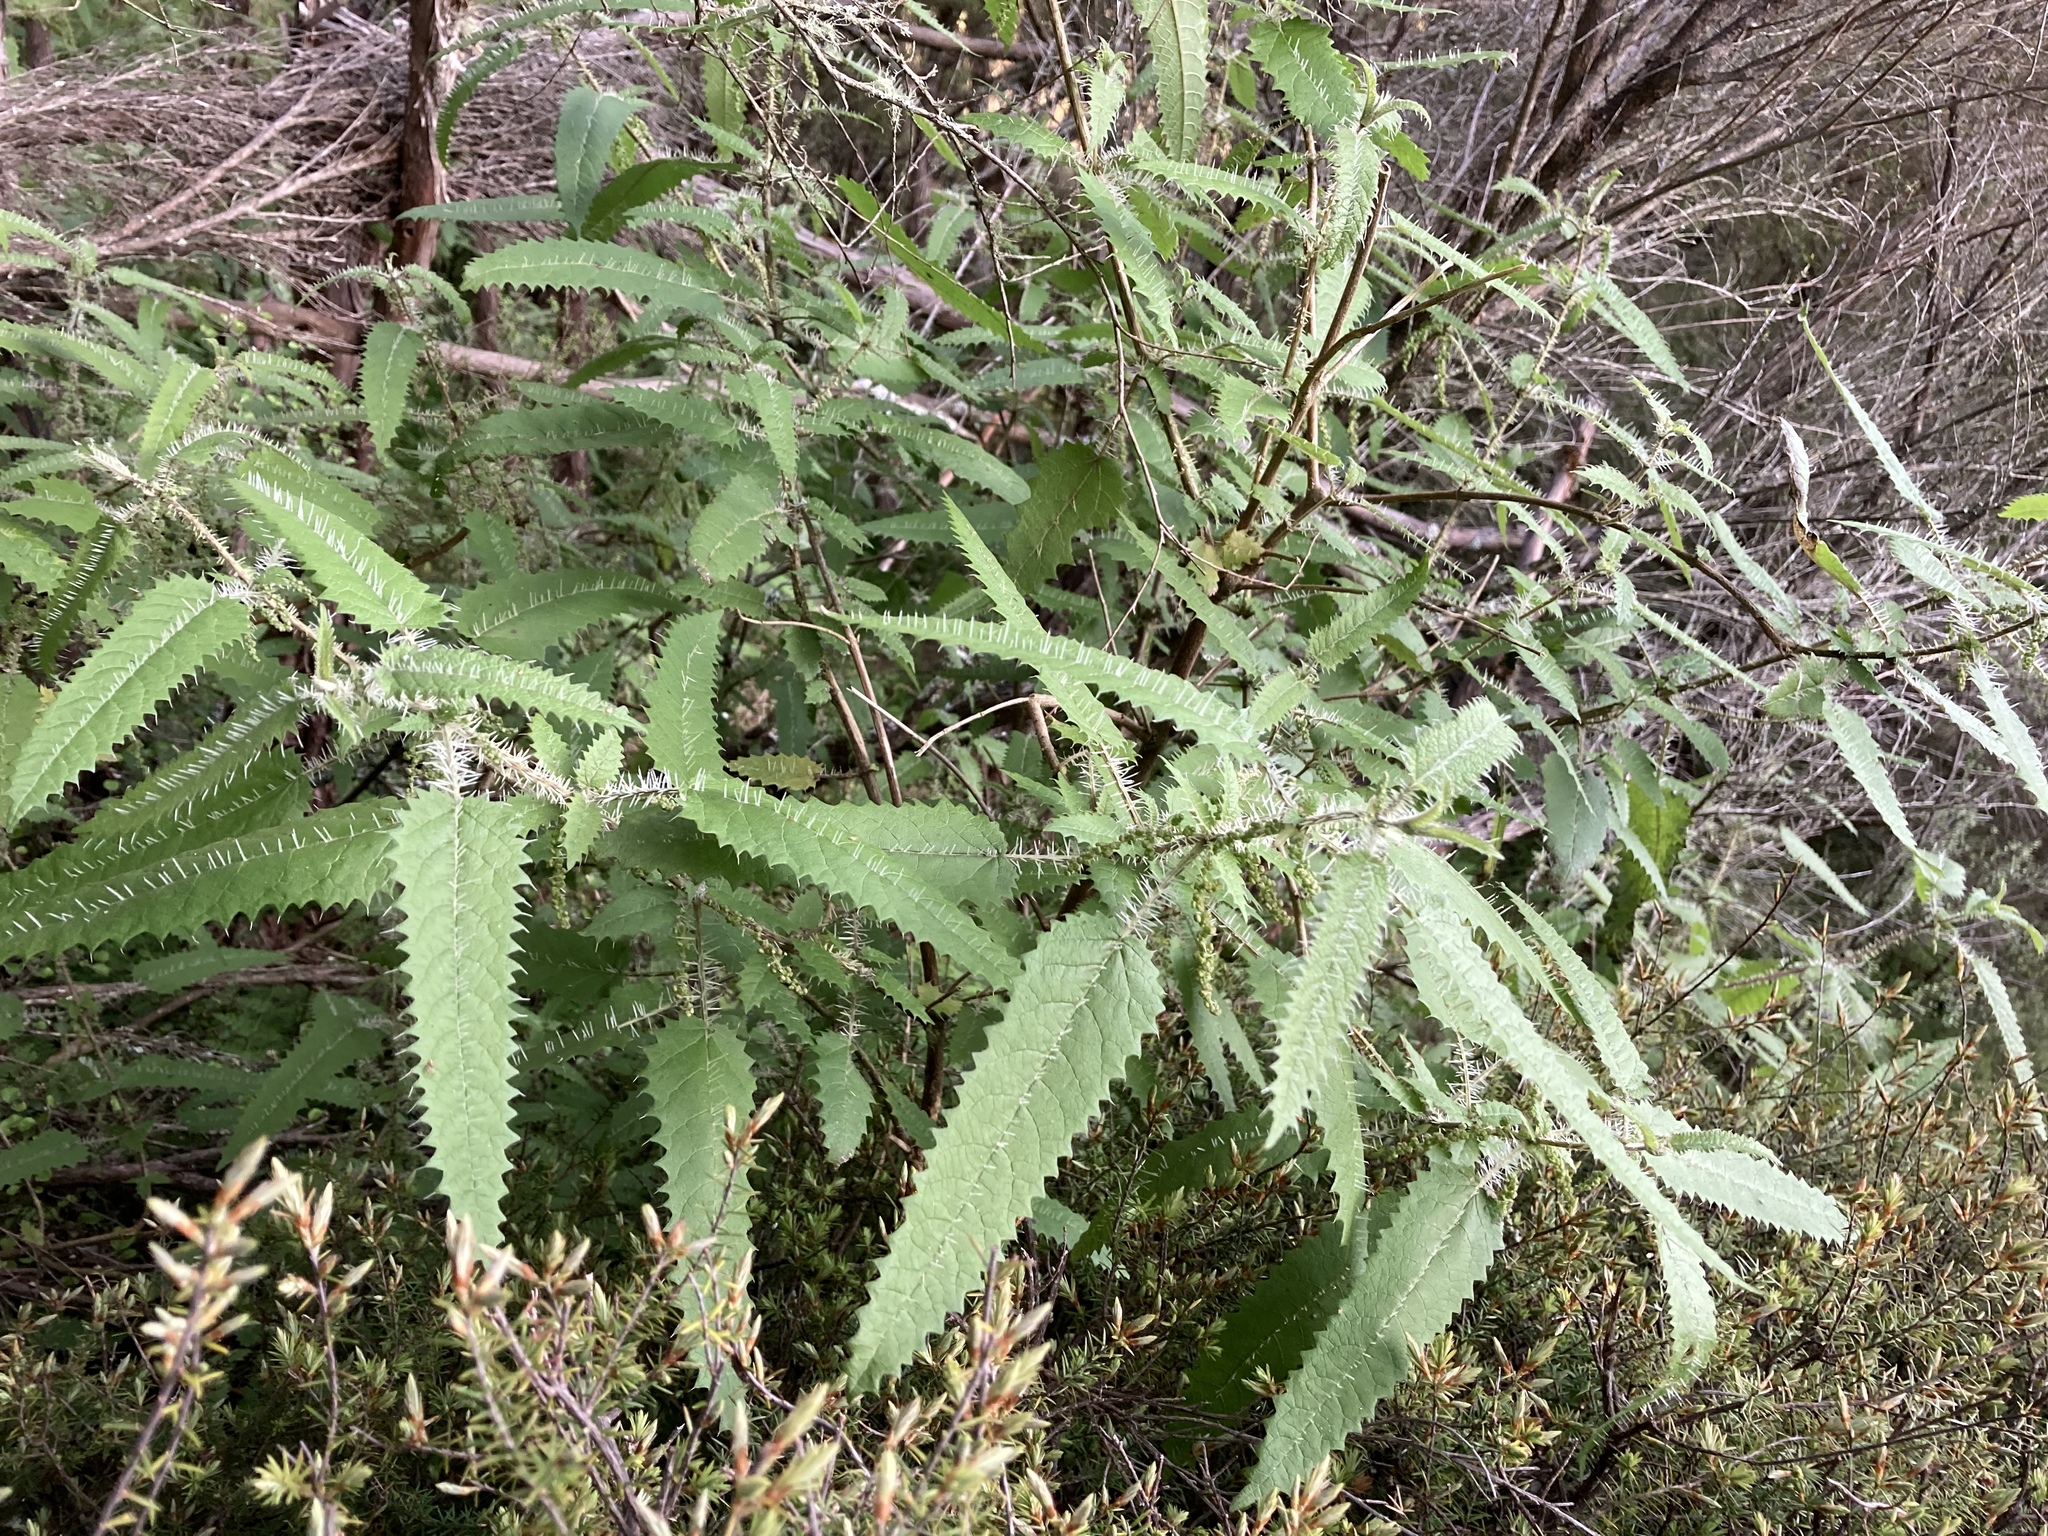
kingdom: Plantae
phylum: Tracheophyta
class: Magnoliopsida
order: Rosales
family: Urticaceae
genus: Urtica
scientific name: Urtica ferox
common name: Tree nettle
